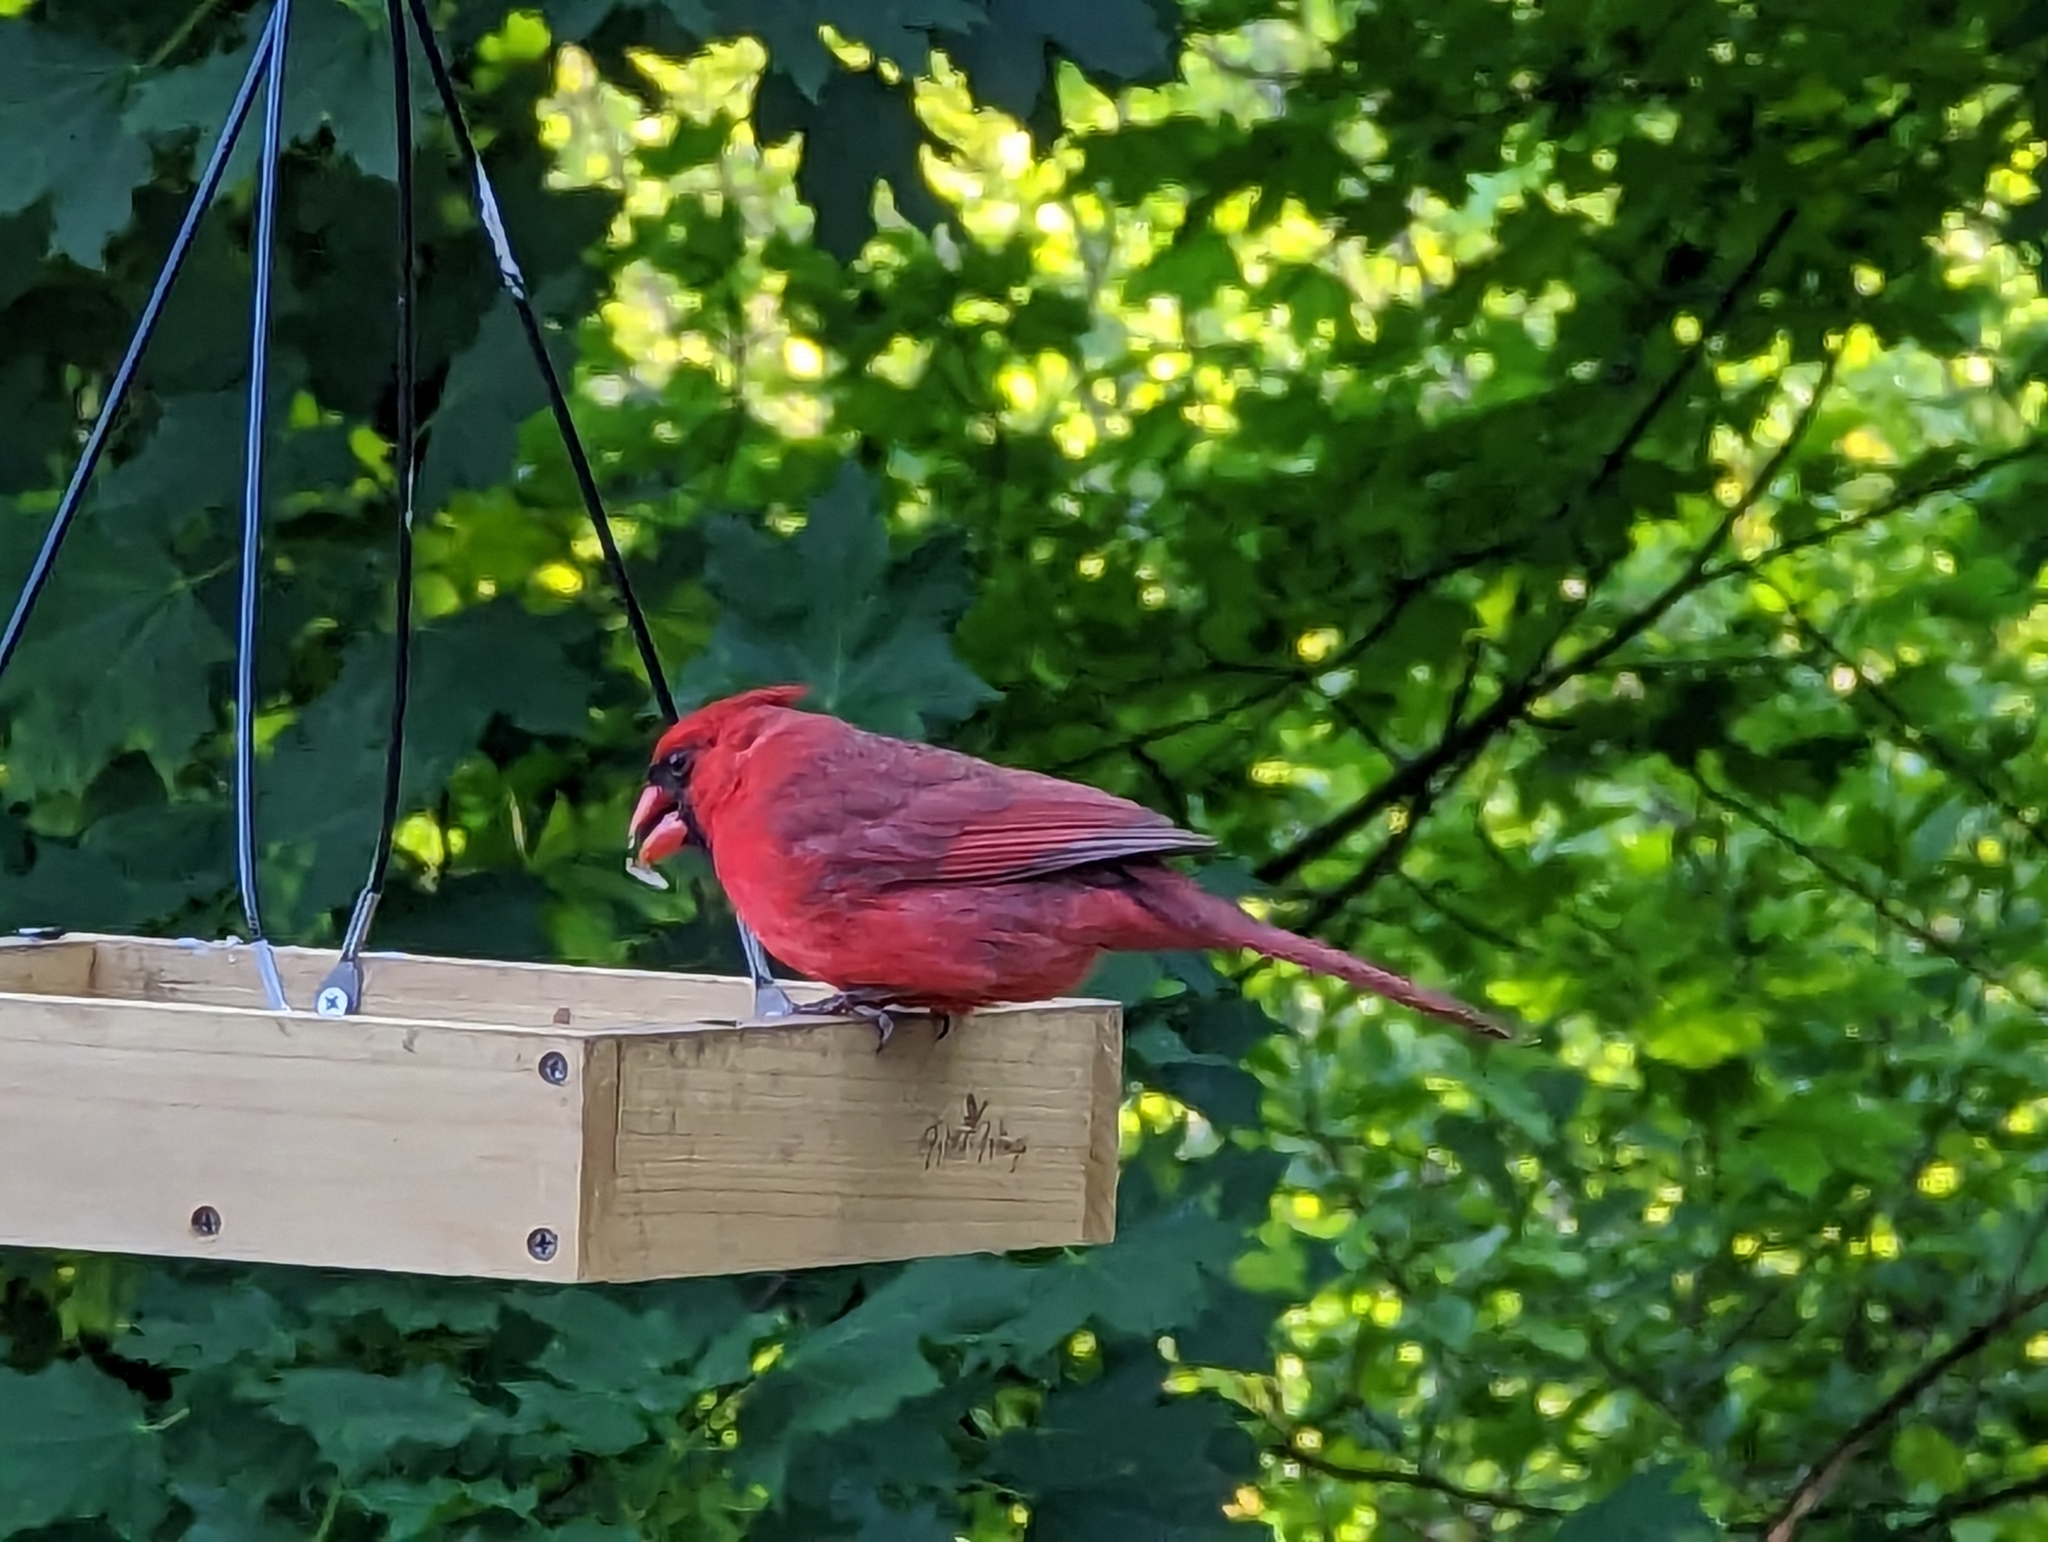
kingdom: Animalia
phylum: Chordata
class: Aves
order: Passeriformes
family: Cardinalidae
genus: Cardinalis
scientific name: Cardinalis cardinalis
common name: Northern cardinal
